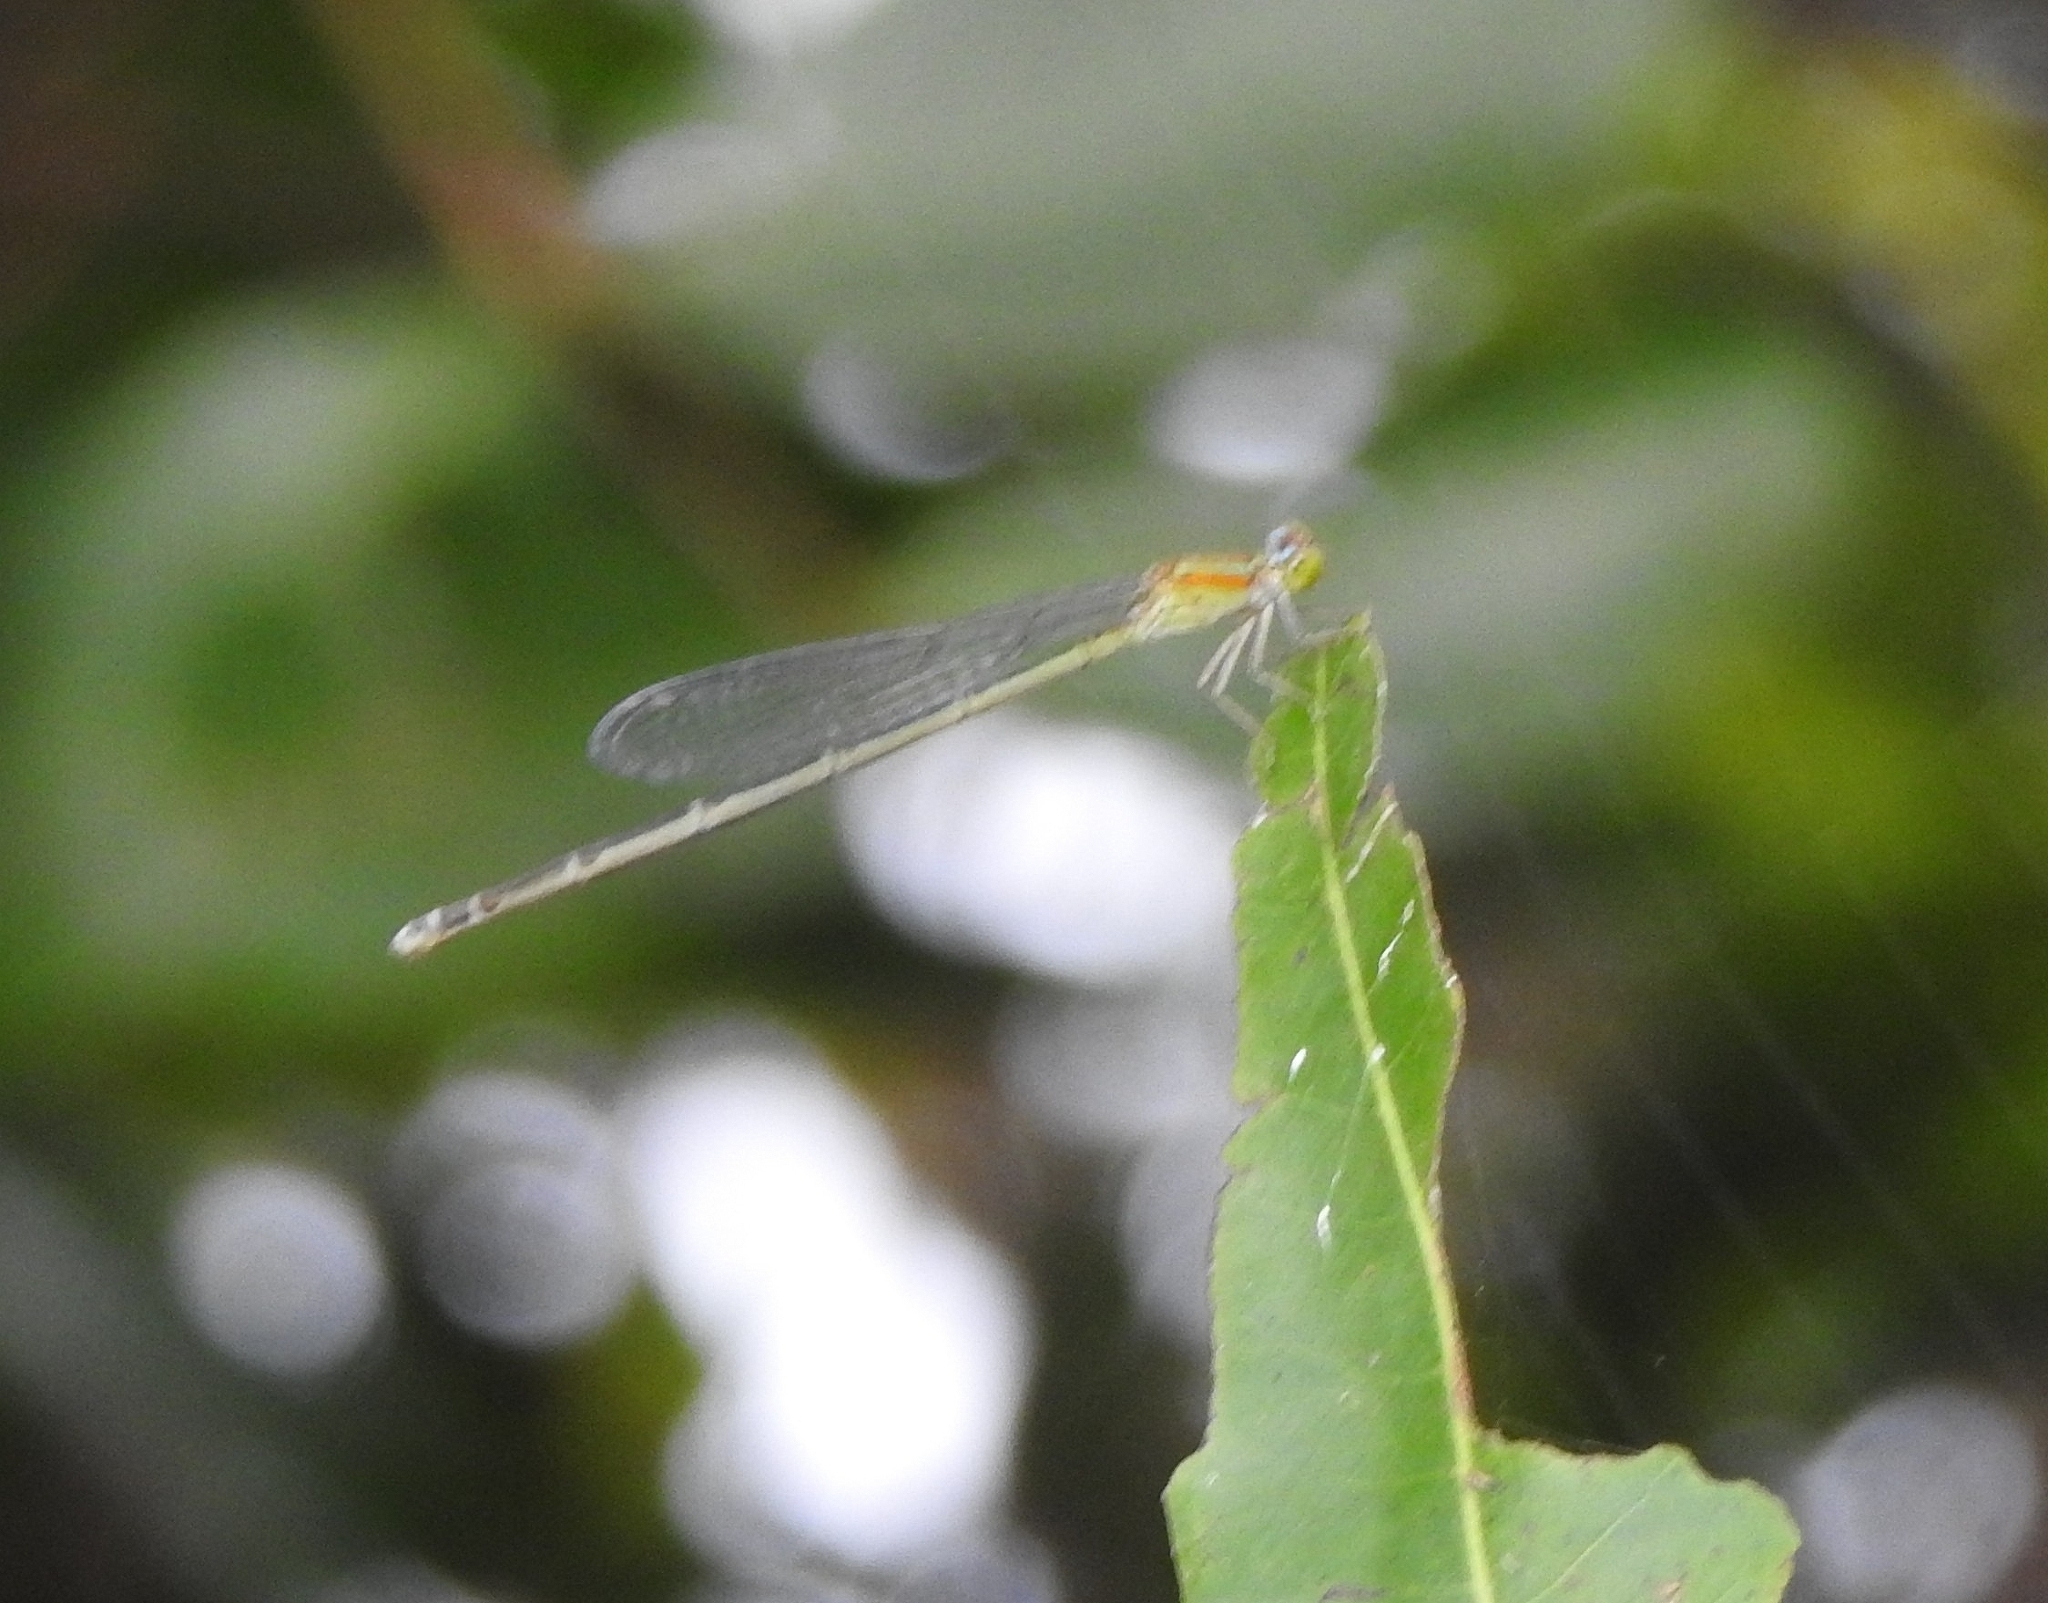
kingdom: Animalia
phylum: Arthropoda
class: Insecta
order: Odonata
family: Coenagrionidae
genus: Pseudagrion
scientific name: Pseudagrion microcephalum
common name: Blue riverdamsel
